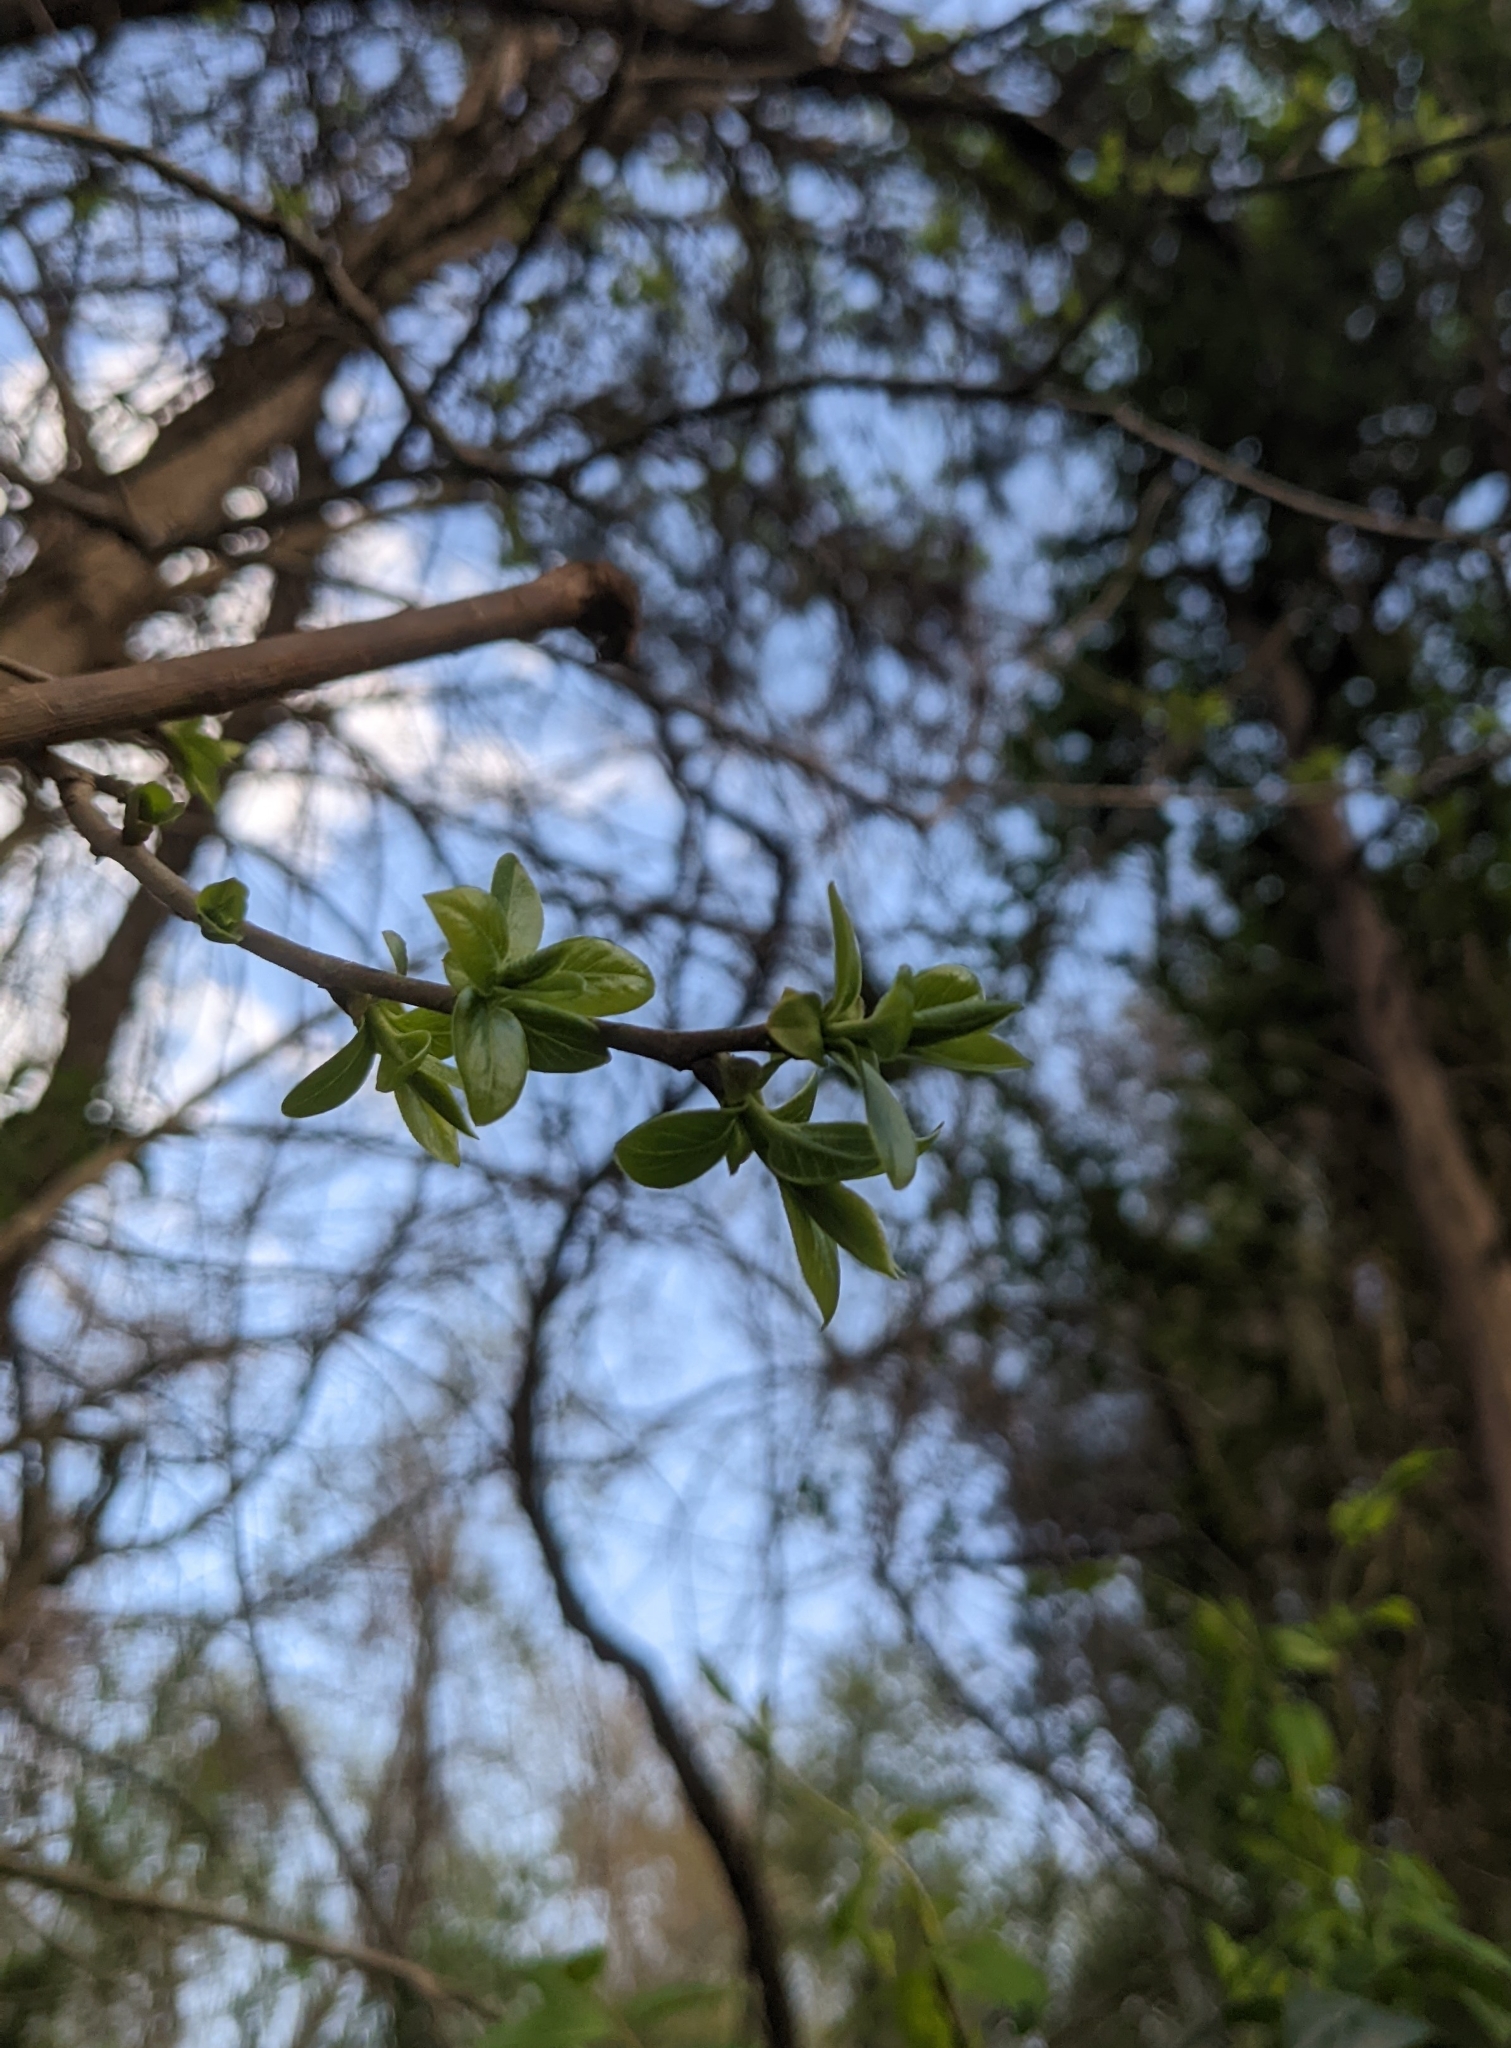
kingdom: Plantae
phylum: Tracheophyta
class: Magnoliopsida
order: Ericales
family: Ebenaceae
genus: Diospyros
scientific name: Diospyros virginiana
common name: Persimmon
